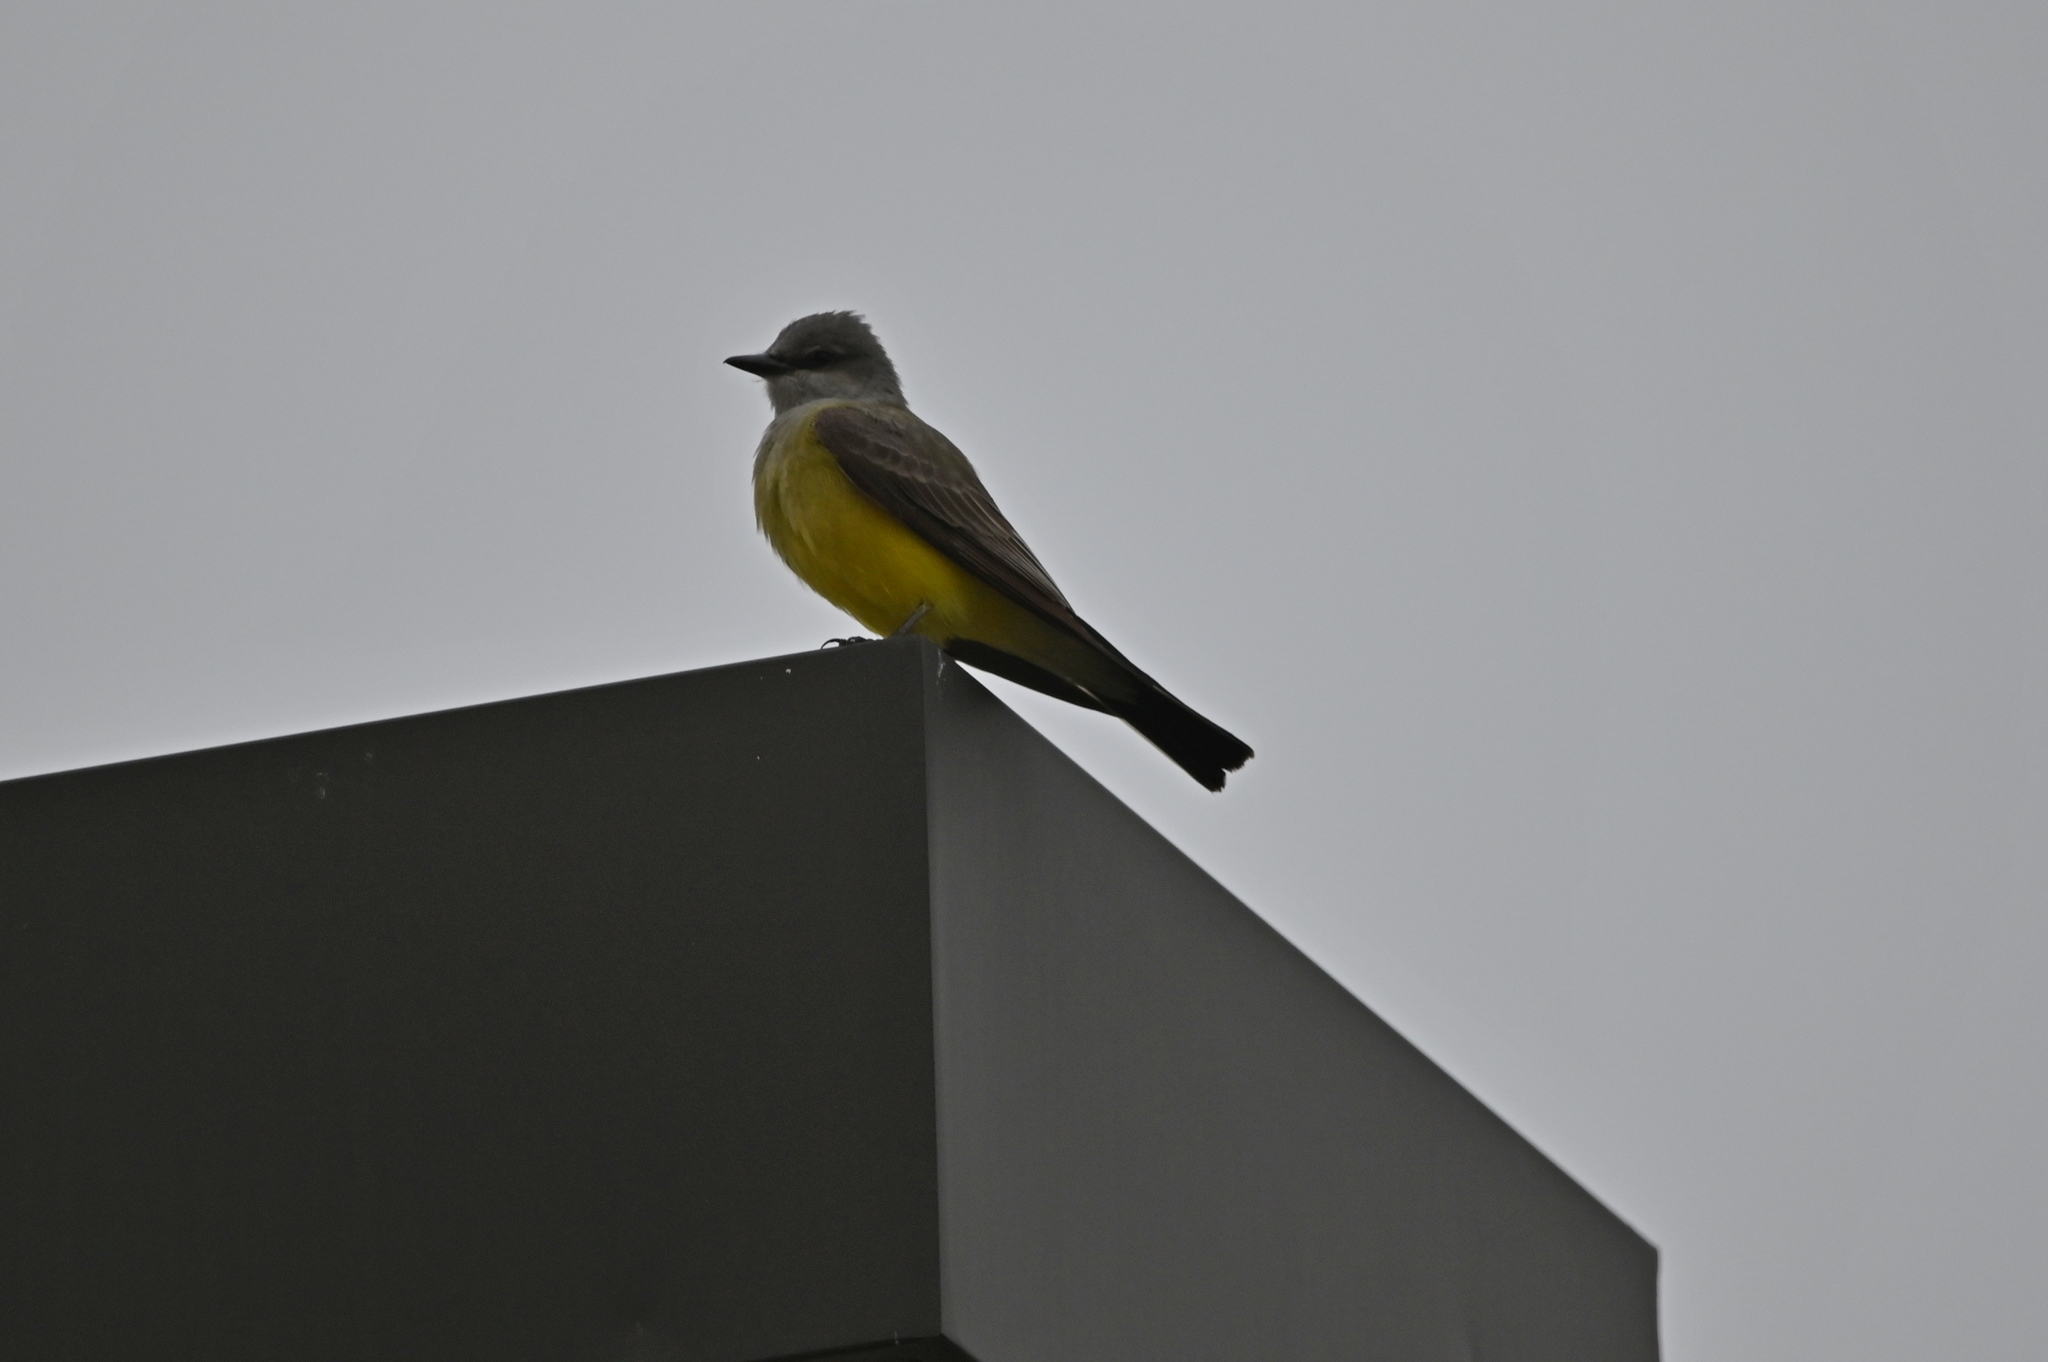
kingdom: Animalia
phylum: Chordata
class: Aves
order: Passeriformes
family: Tyrannidae
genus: Tyrannus
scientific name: Tyrannus verticalis
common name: Western kingbird
